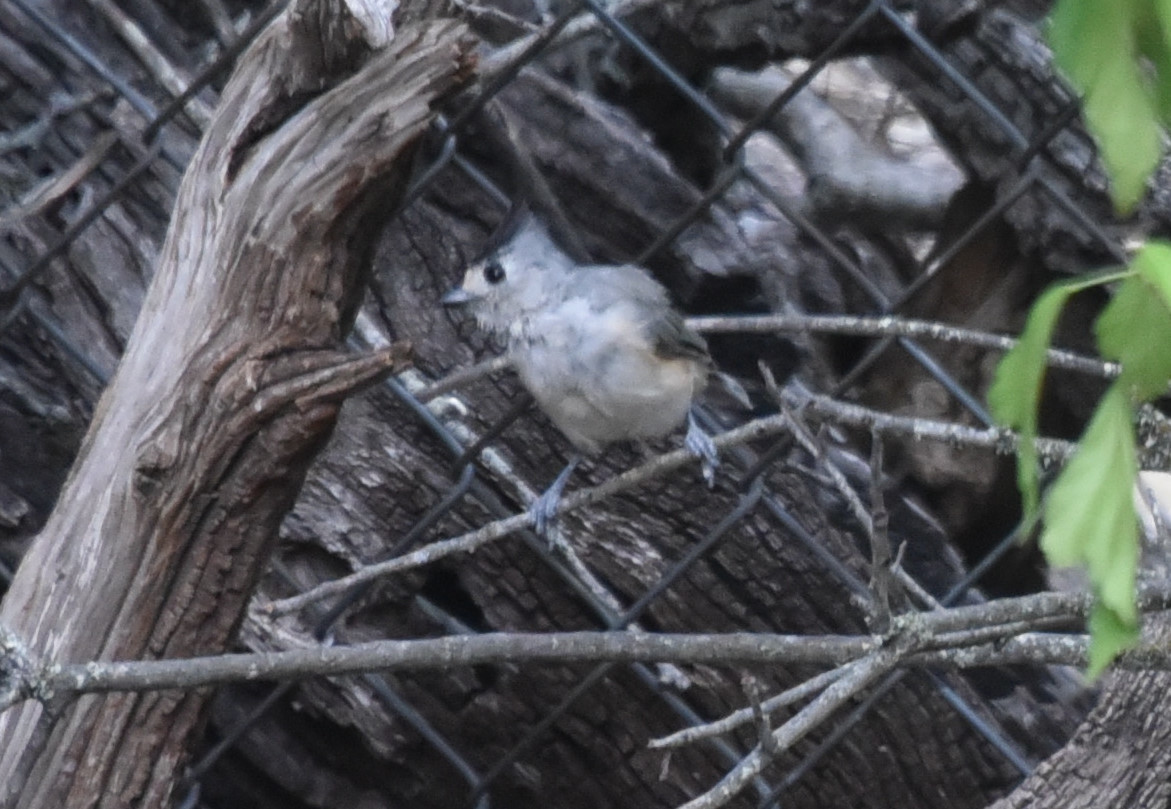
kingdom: Animalia
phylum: Chordata
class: Aves
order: Passeriformes
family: Paridae
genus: Baeolophus
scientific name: Baeolophus atricristatus
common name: Black-crested titmouse
